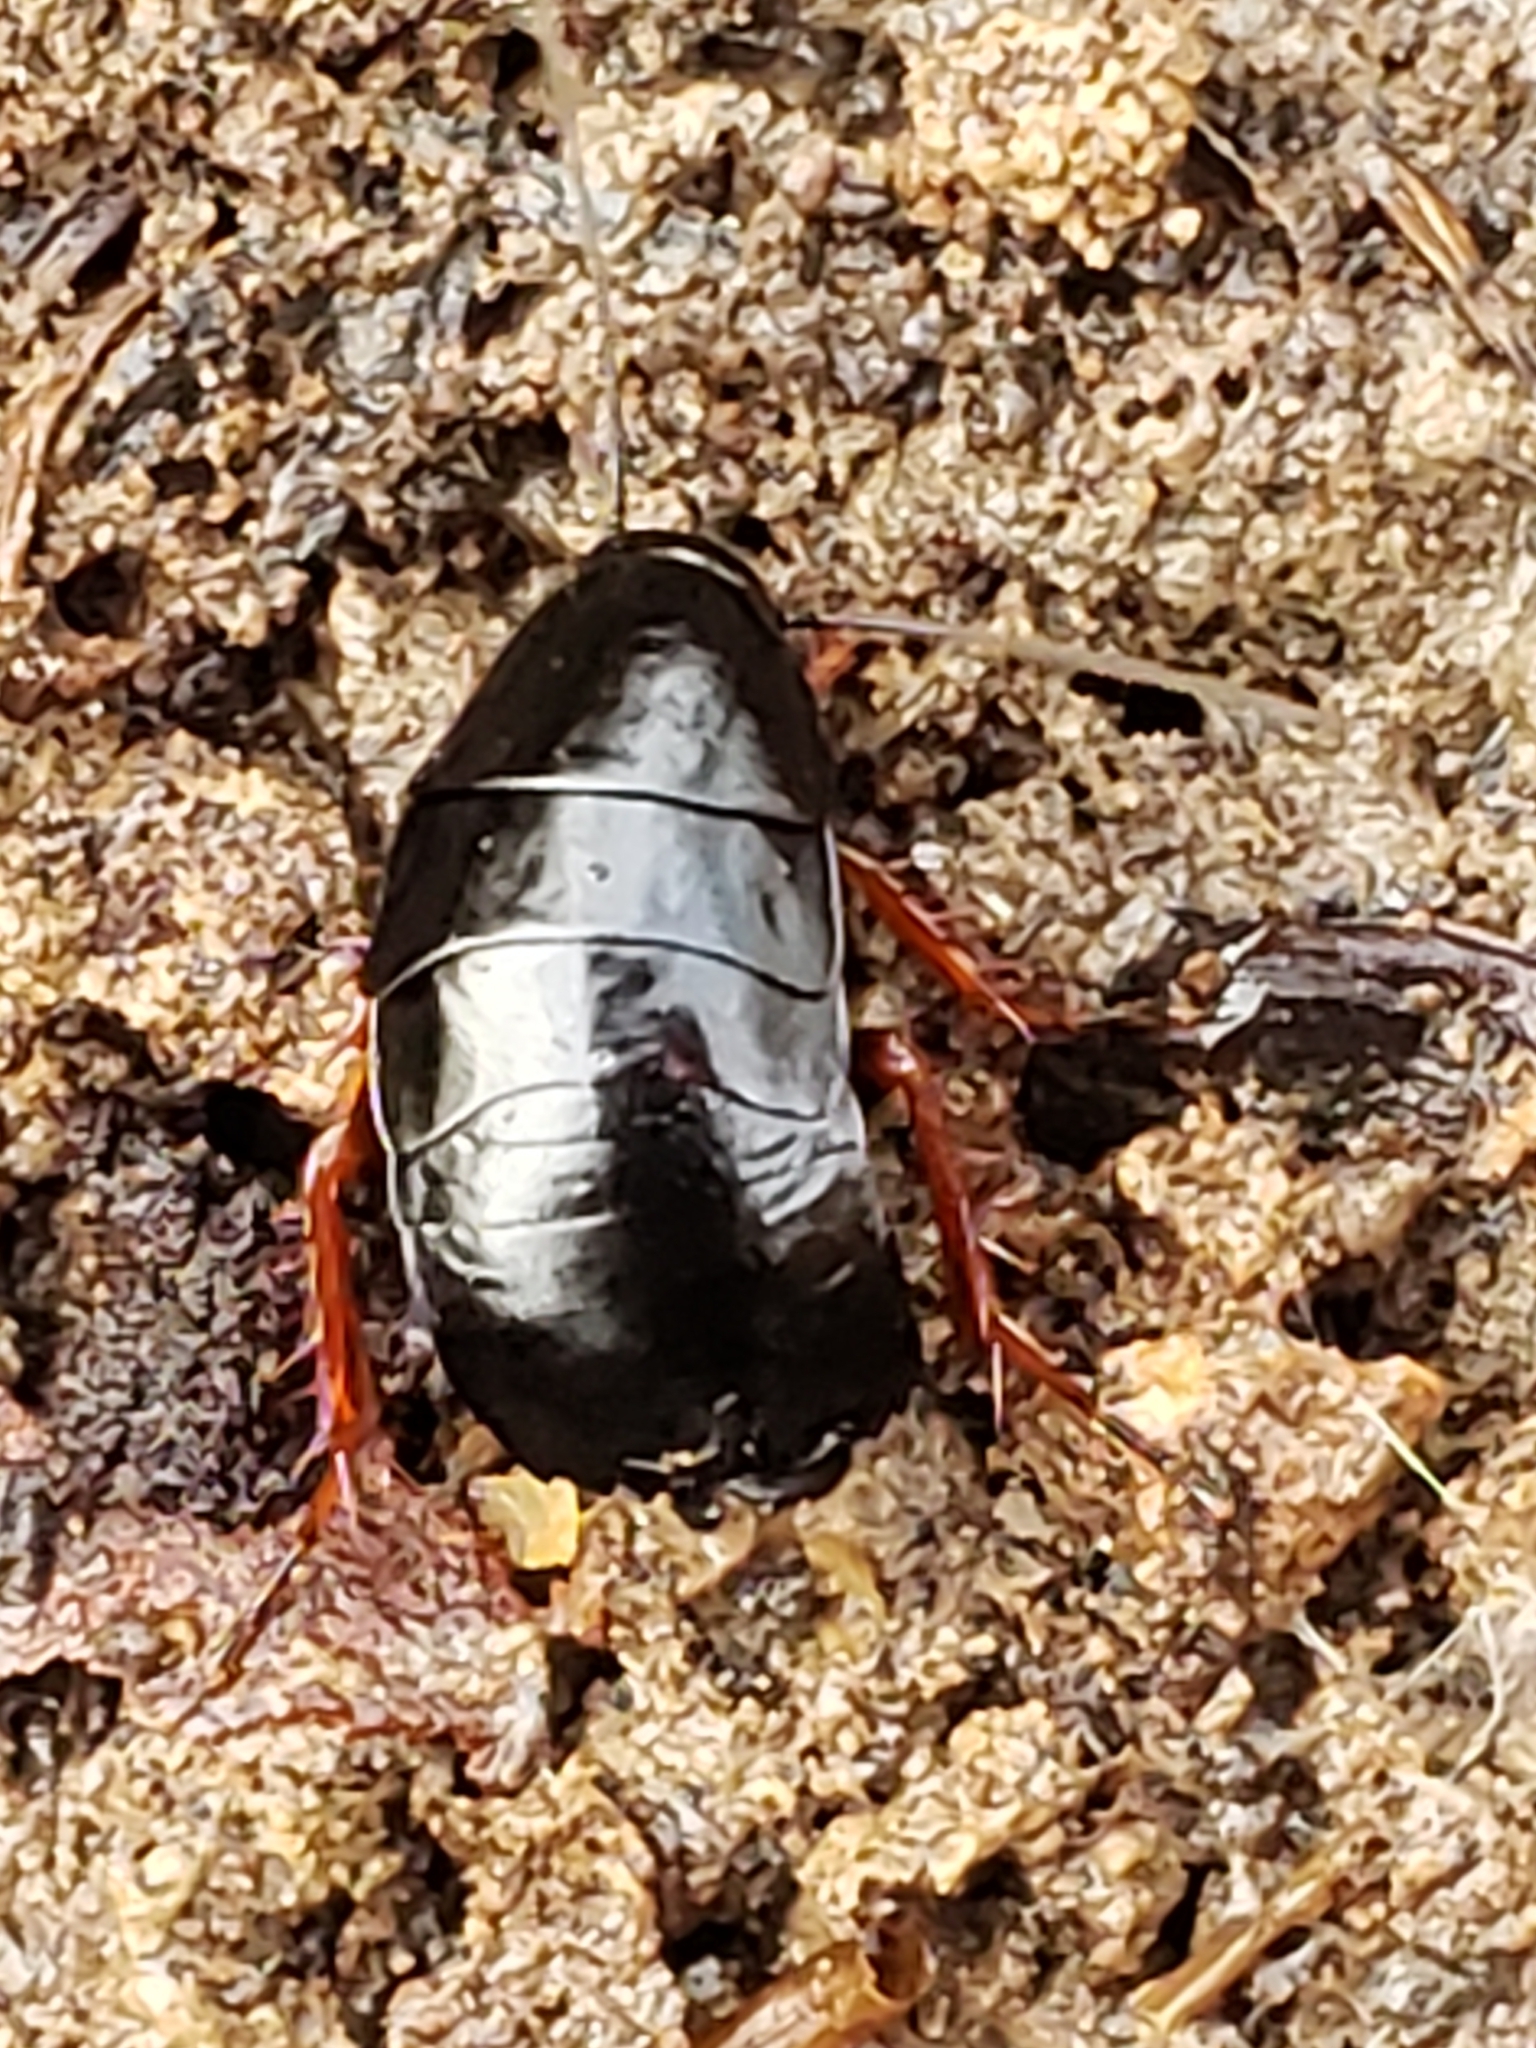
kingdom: Animalia
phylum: Arthropoda
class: Insecta
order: Blattodea
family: Ectobiidae
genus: Ischnoptera
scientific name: Ischnoptera deropeltiformis
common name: Dark wood cockroach
